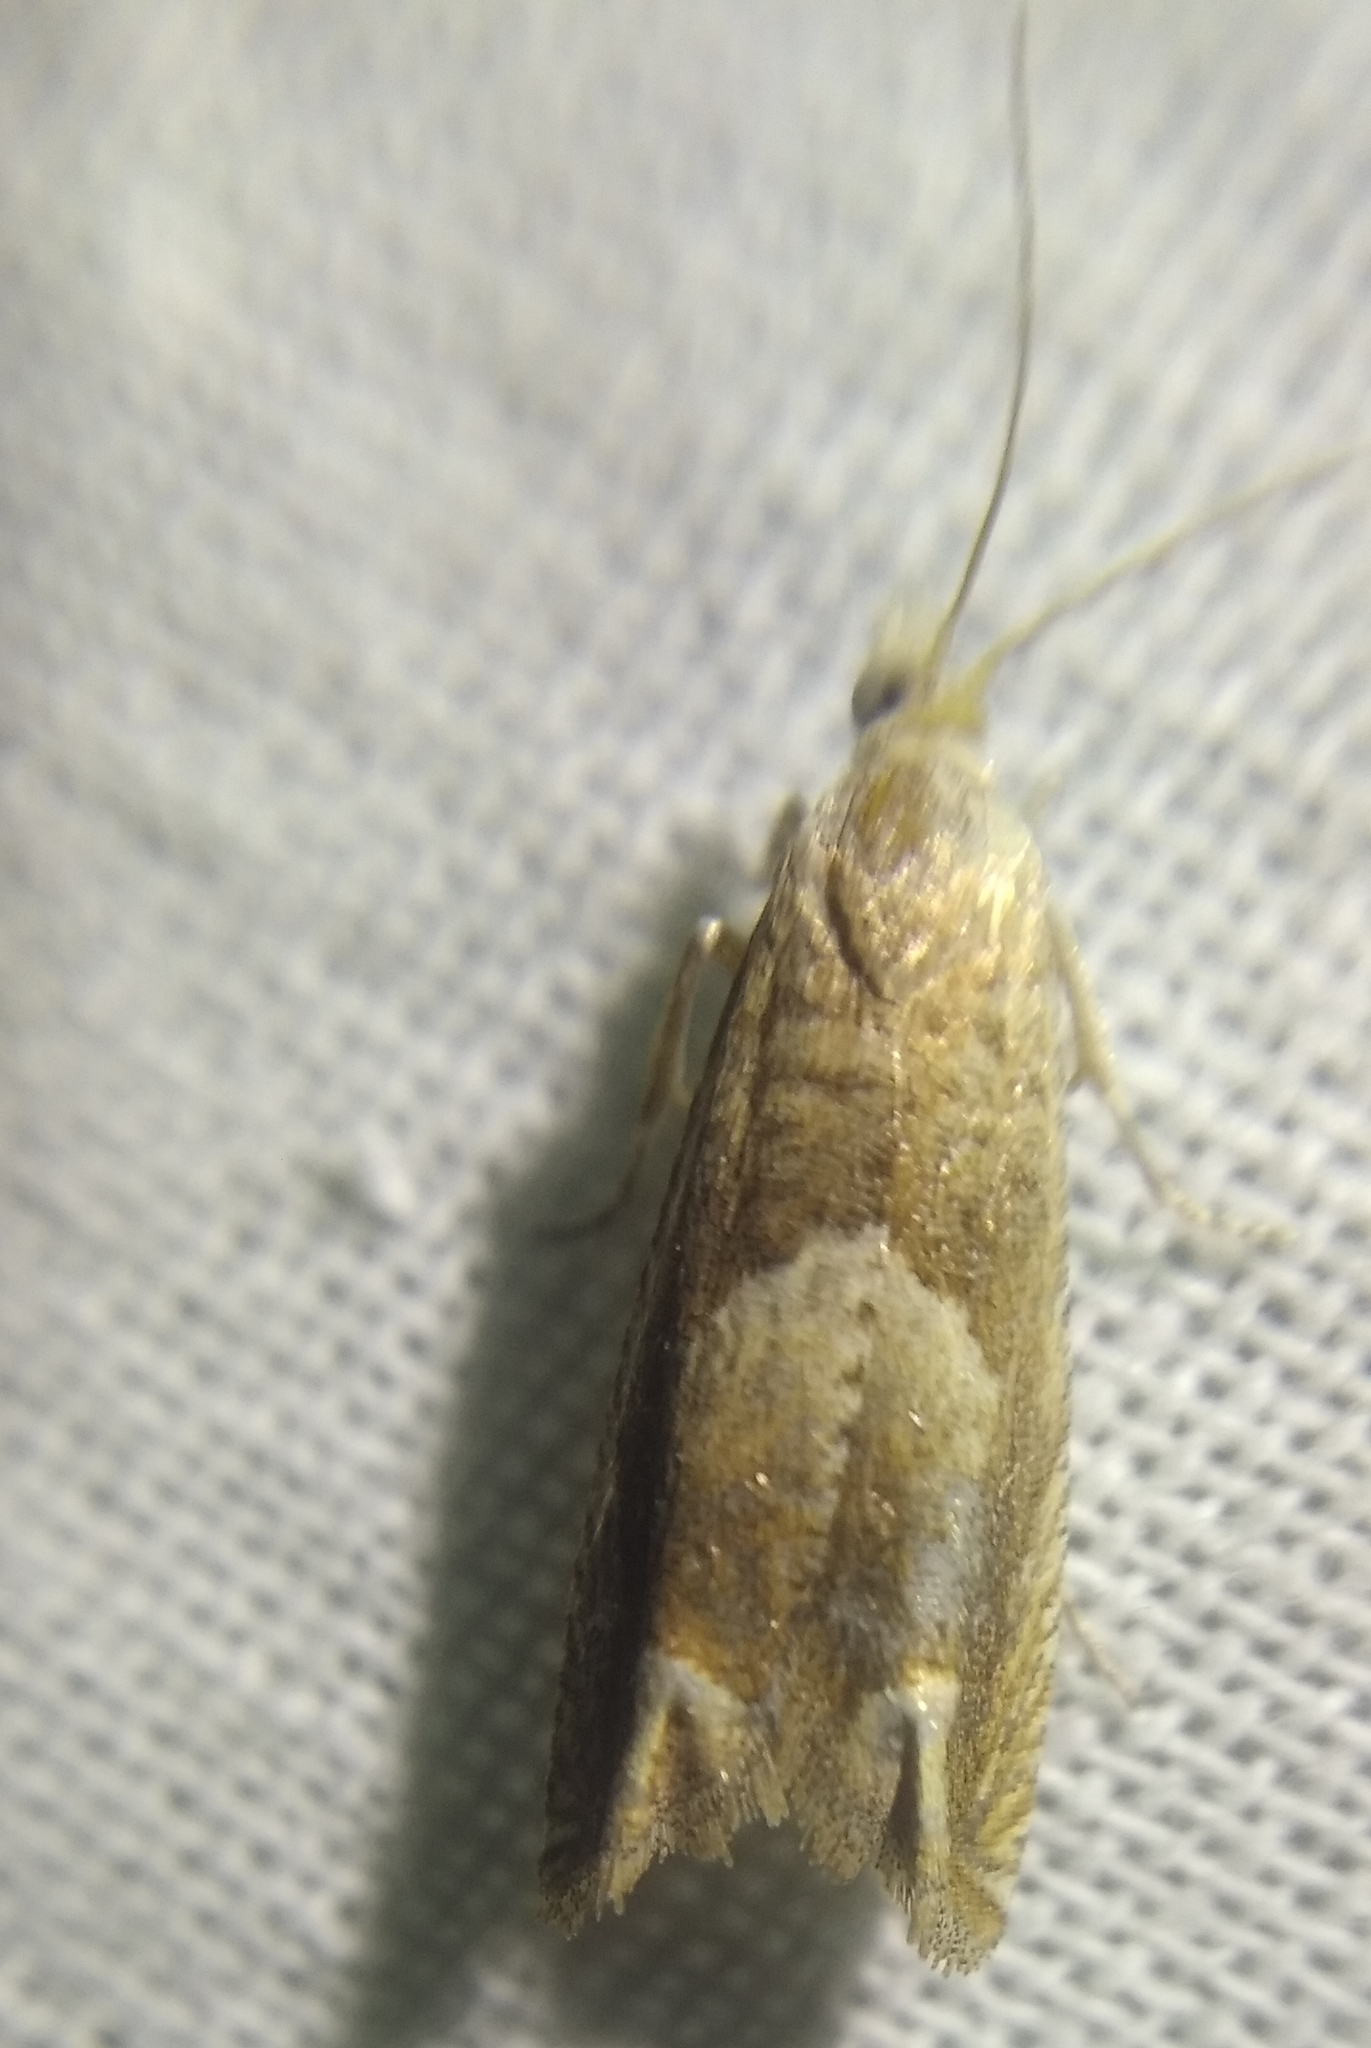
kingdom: Animalia
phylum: Arthropoda
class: Insecta
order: Lepidoptera
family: Tortricidae
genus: Eucosma
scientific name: Eucosma conterminana
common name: Pale lettuce bell
